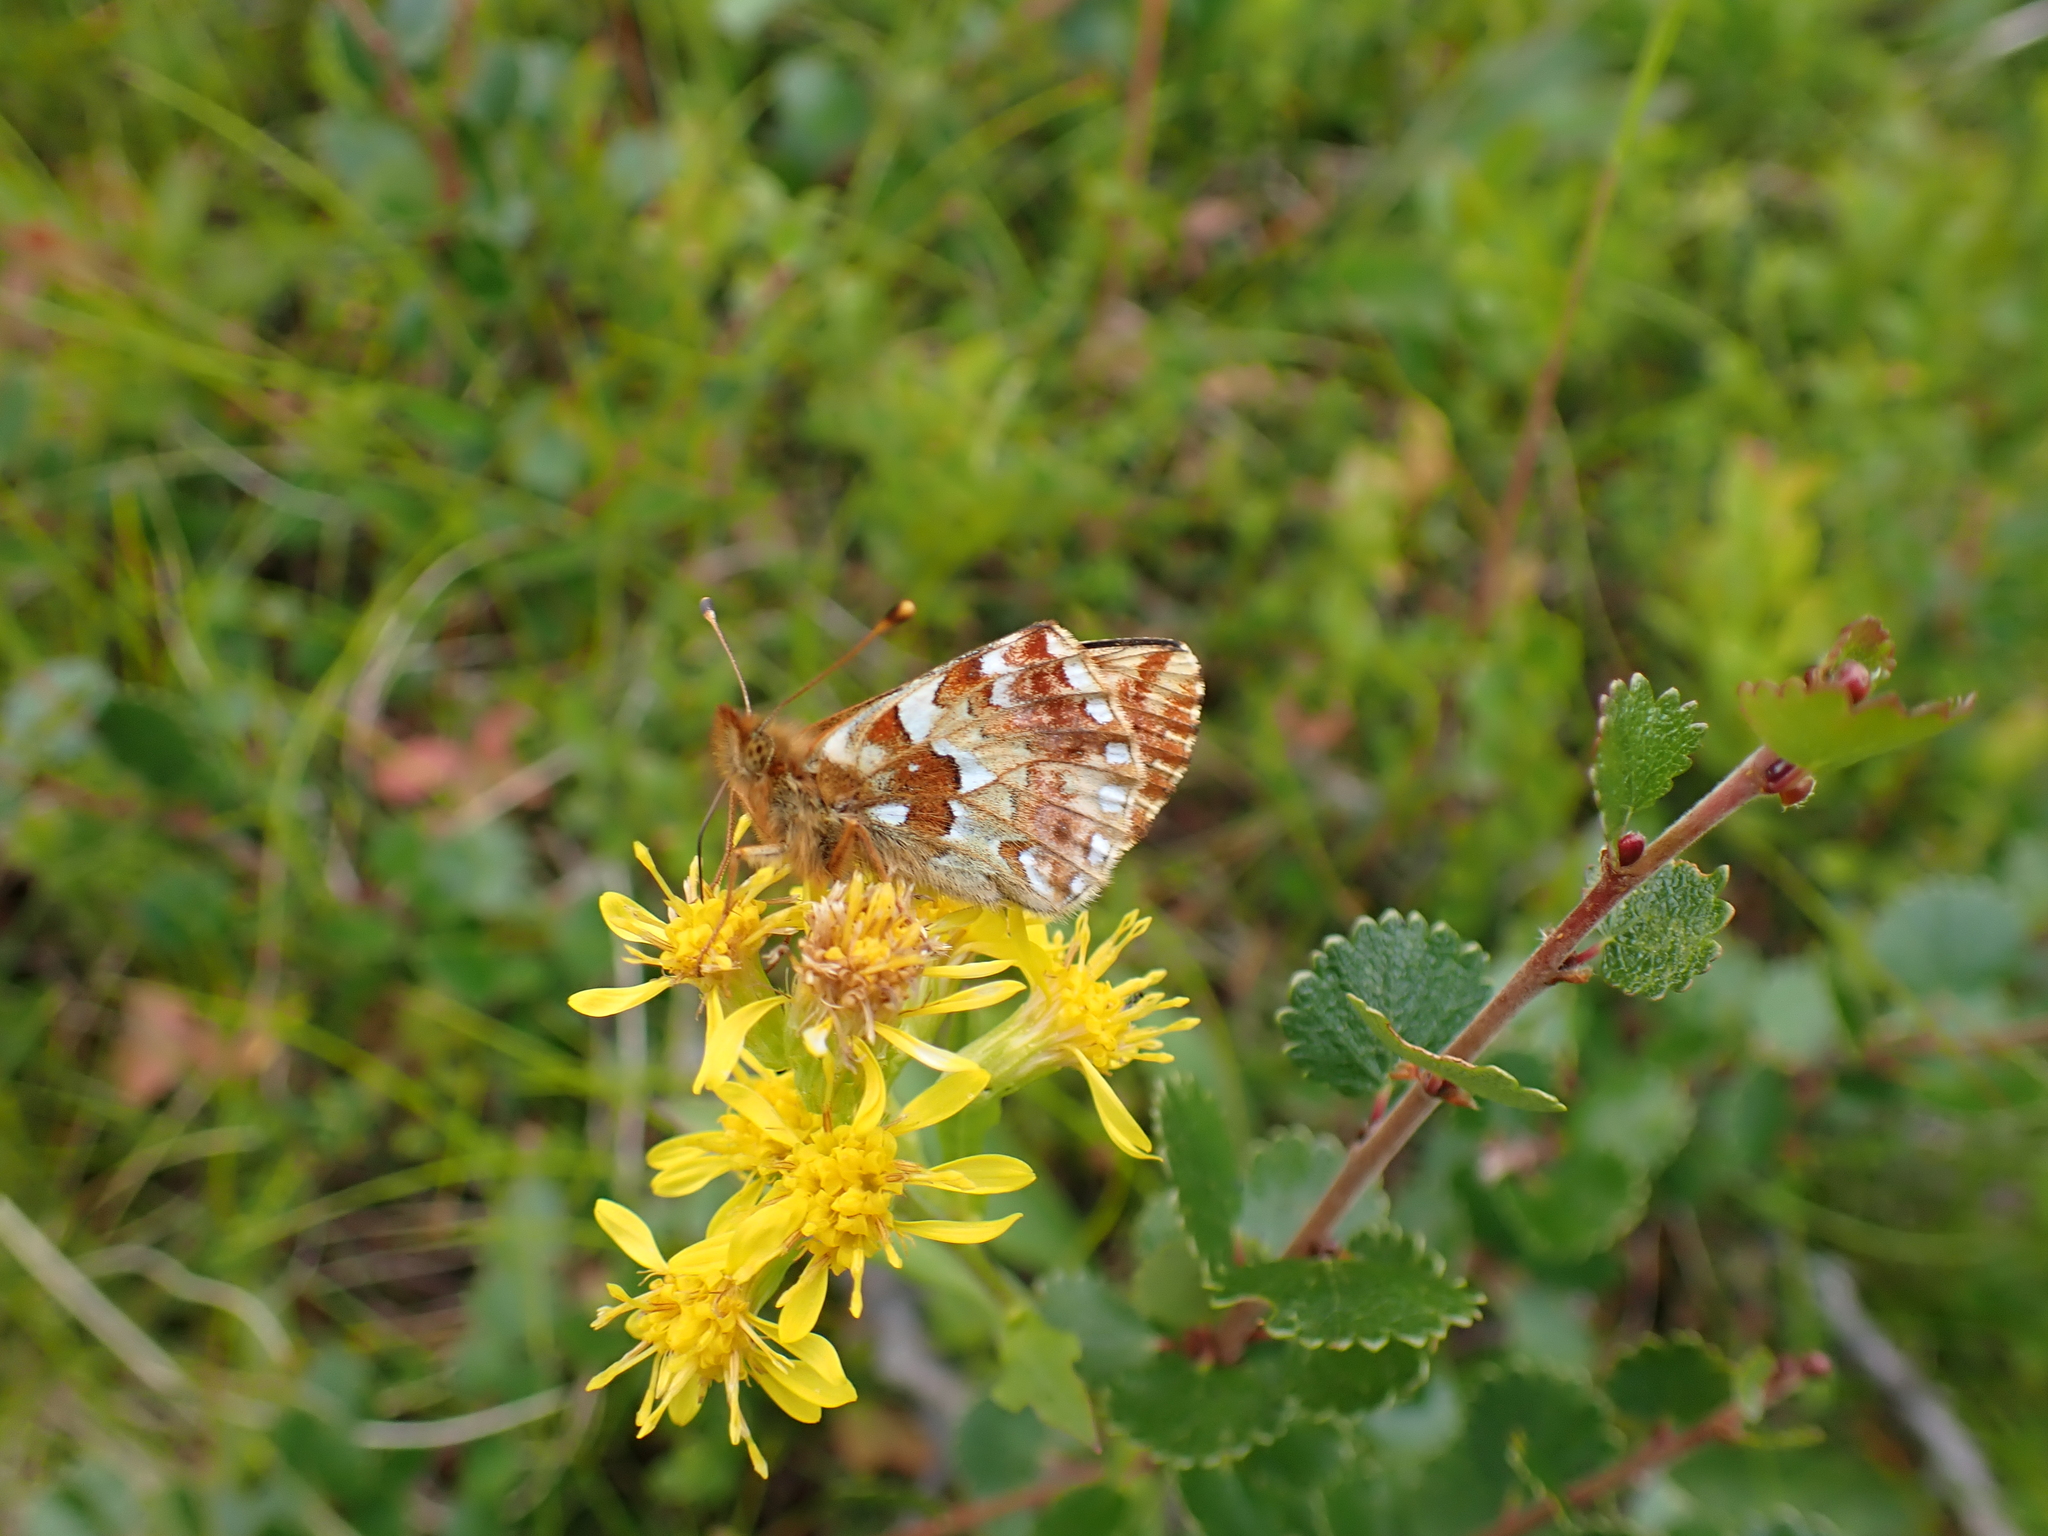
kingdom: Animalia
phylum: Arthropoda
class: Insecta
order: Lepidoptera
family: Nymphalidae
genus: Boloria
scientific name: Boloria aquilonaris
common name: Cranberry fritillary
